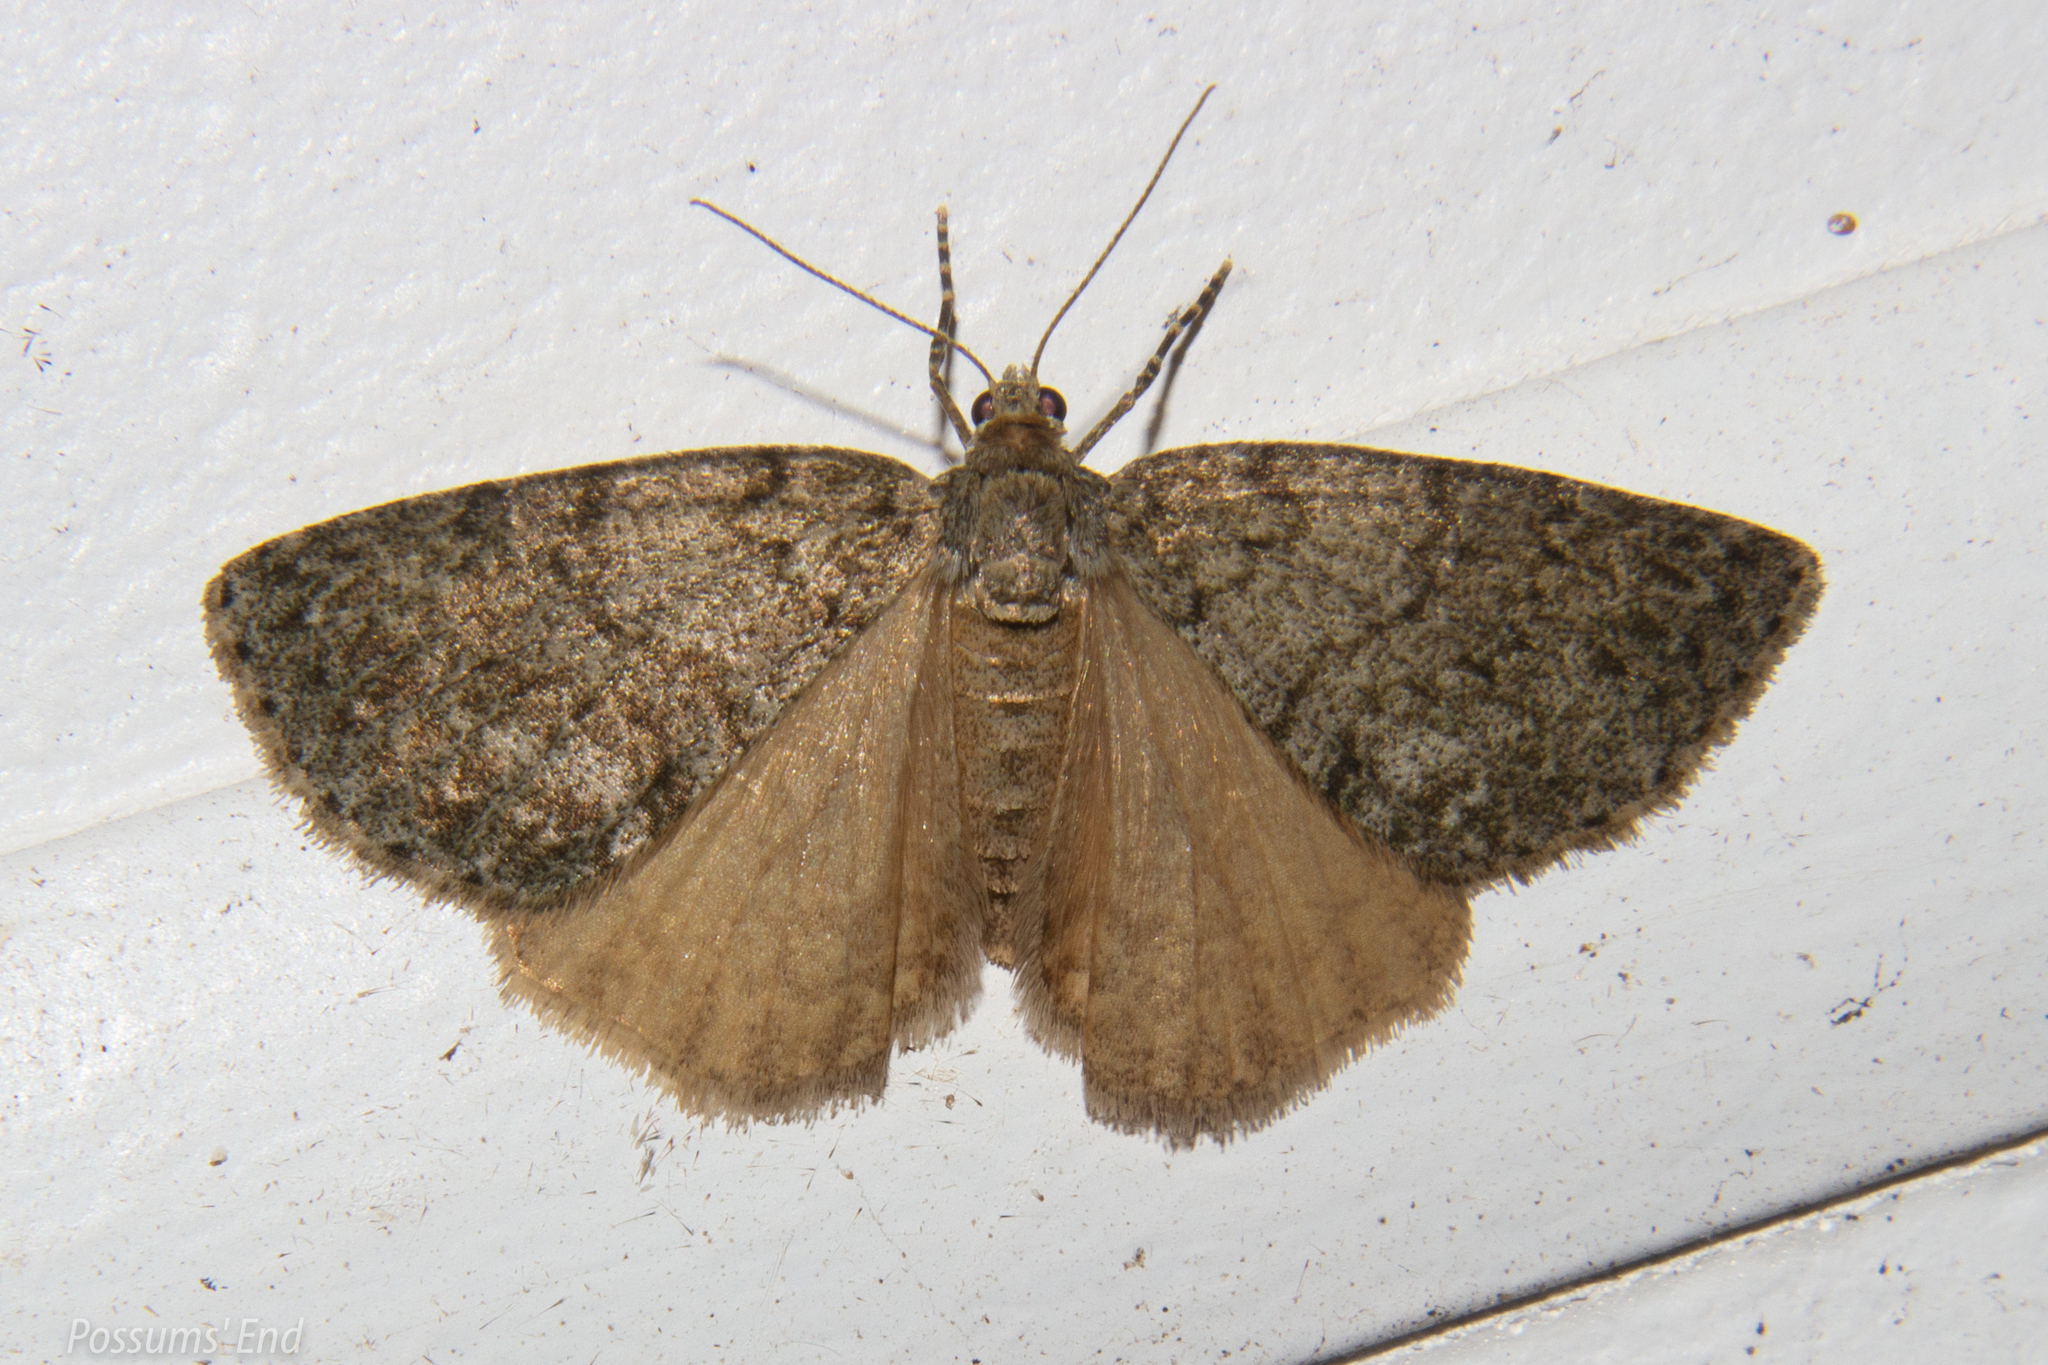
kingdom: Animalia
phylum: Arthropoda
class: Insecta
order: Lepidoptera
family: Geometridae
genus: Pseudocoremia
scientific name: Pseudocoremia indistincta
